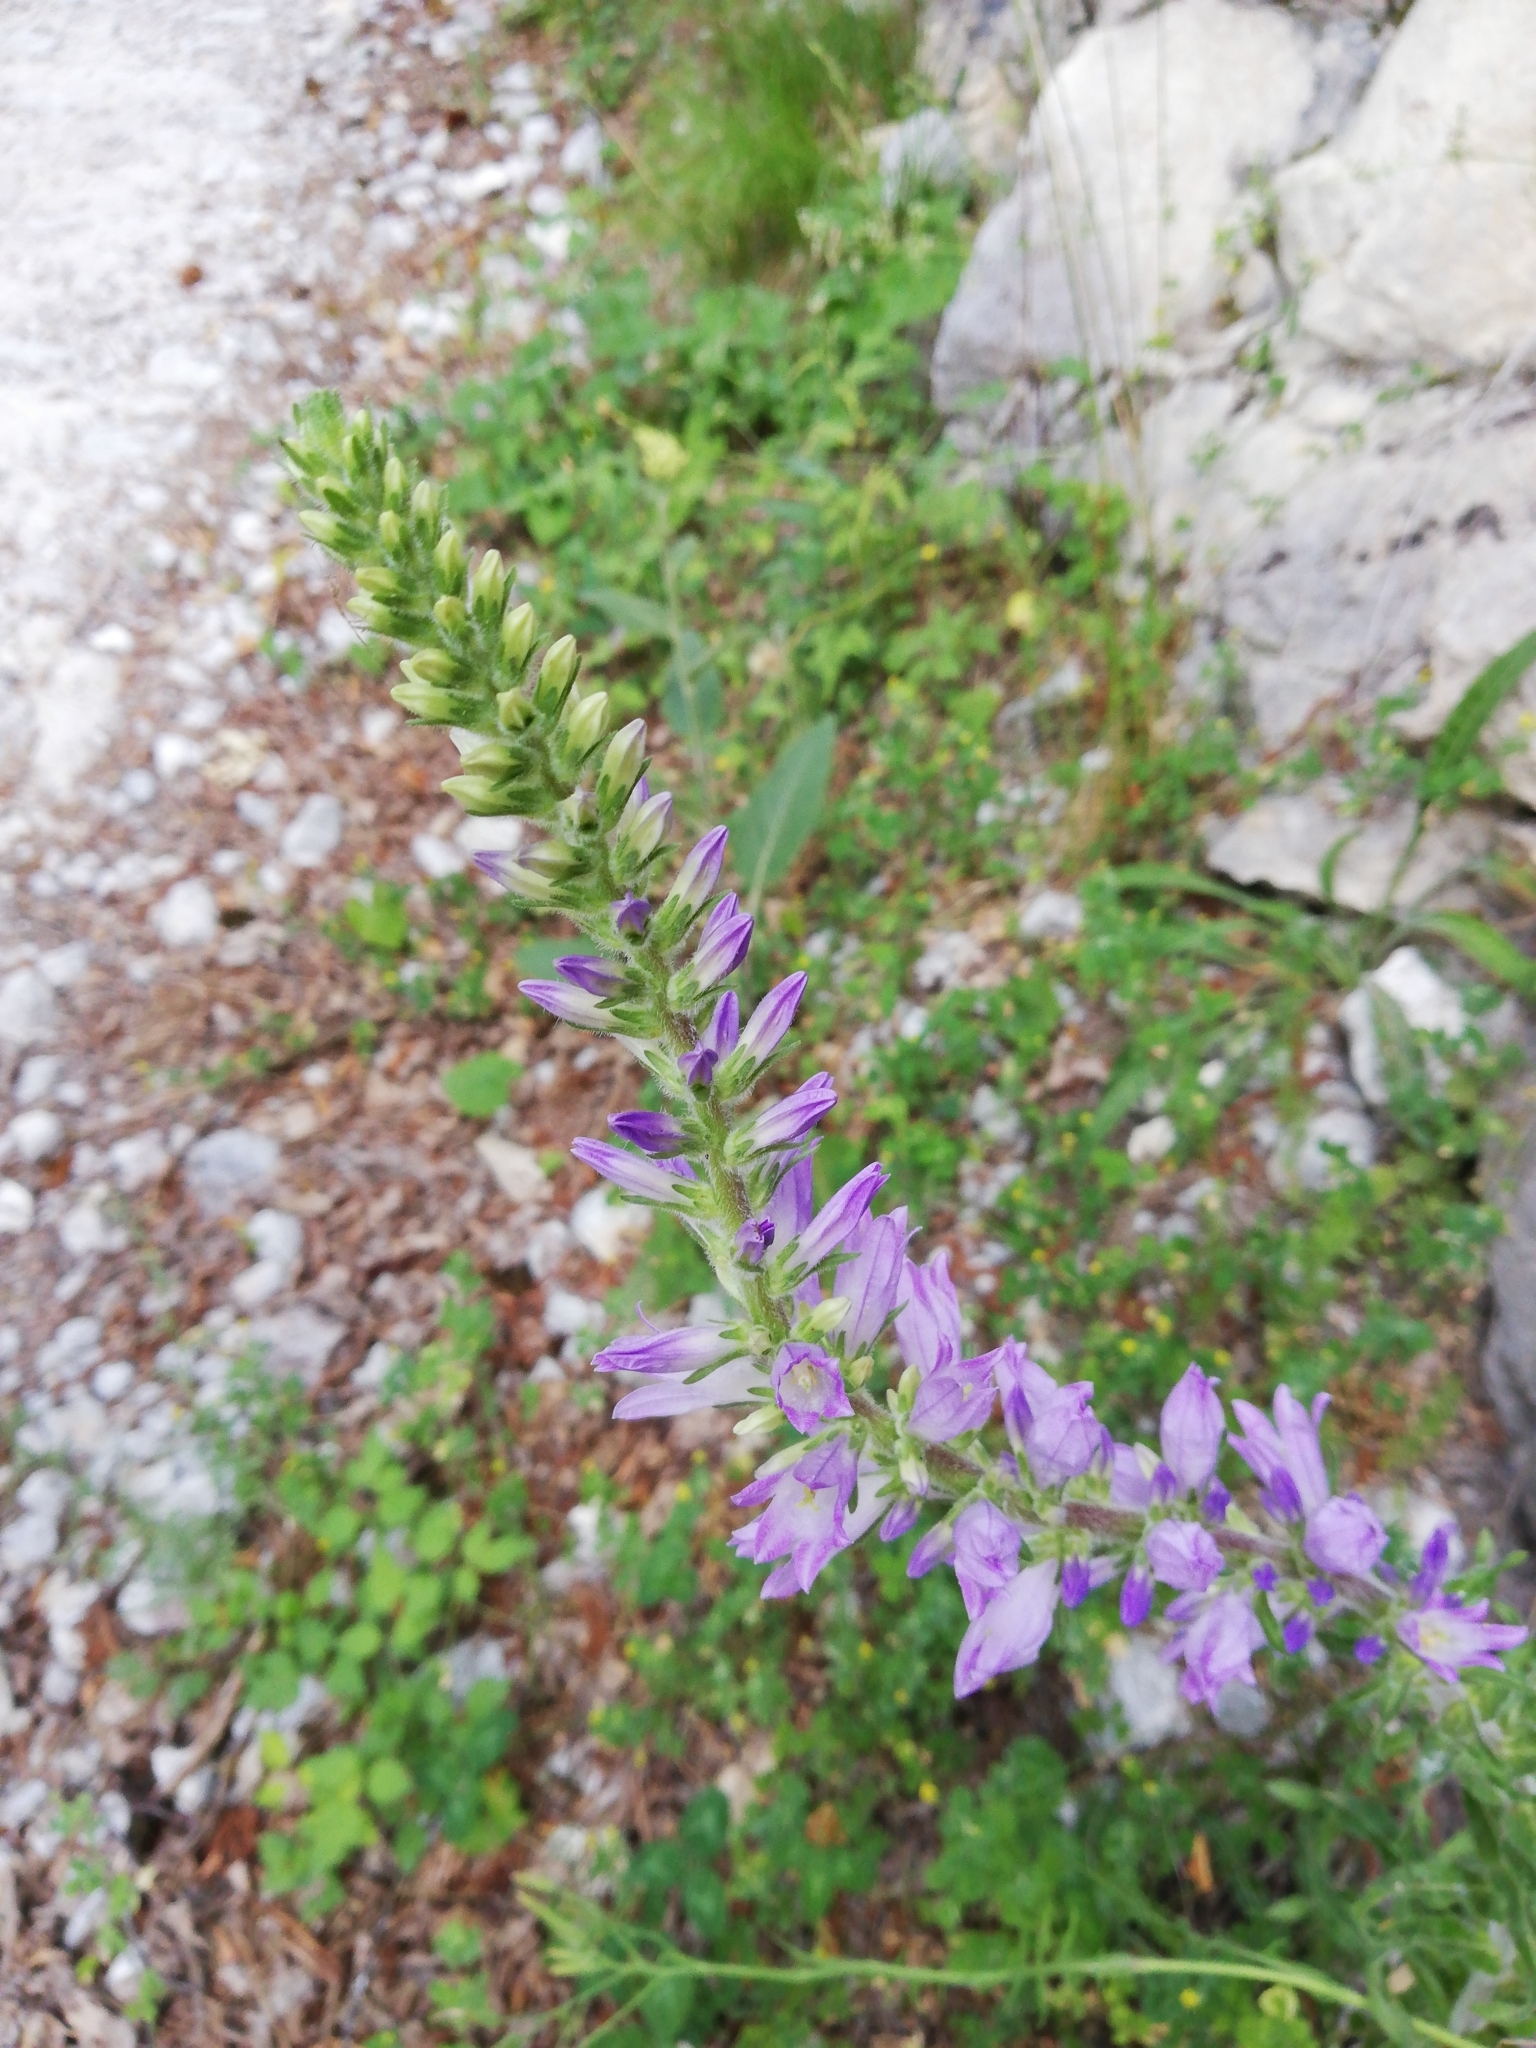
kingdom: Plantae
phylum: Tracheophyta
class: Magnoliopsida
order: Asterales
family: Campanulaceae
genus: Campanula
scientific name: Campanula spicata
